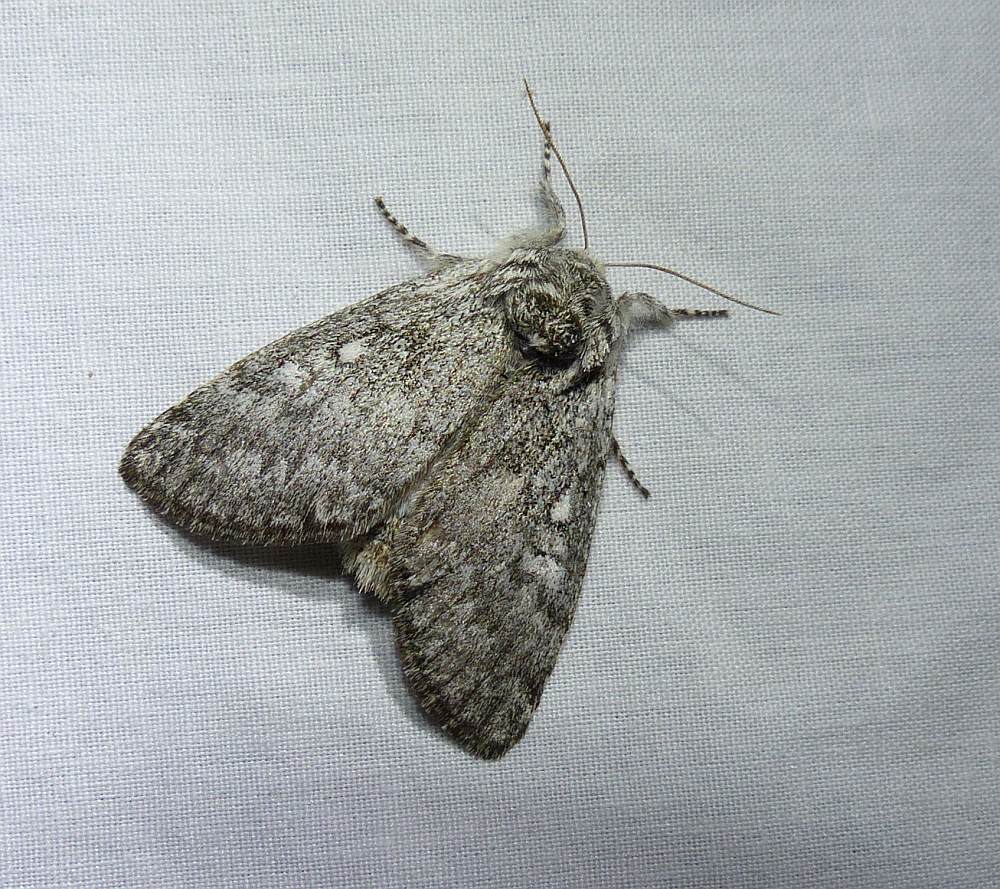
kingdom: Animalia
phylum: Arthropoda
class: Insecta
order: Lepidoptera
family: Noctuidae
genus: Charadra
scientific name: Charadra deridens
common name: Marbled tuffet
